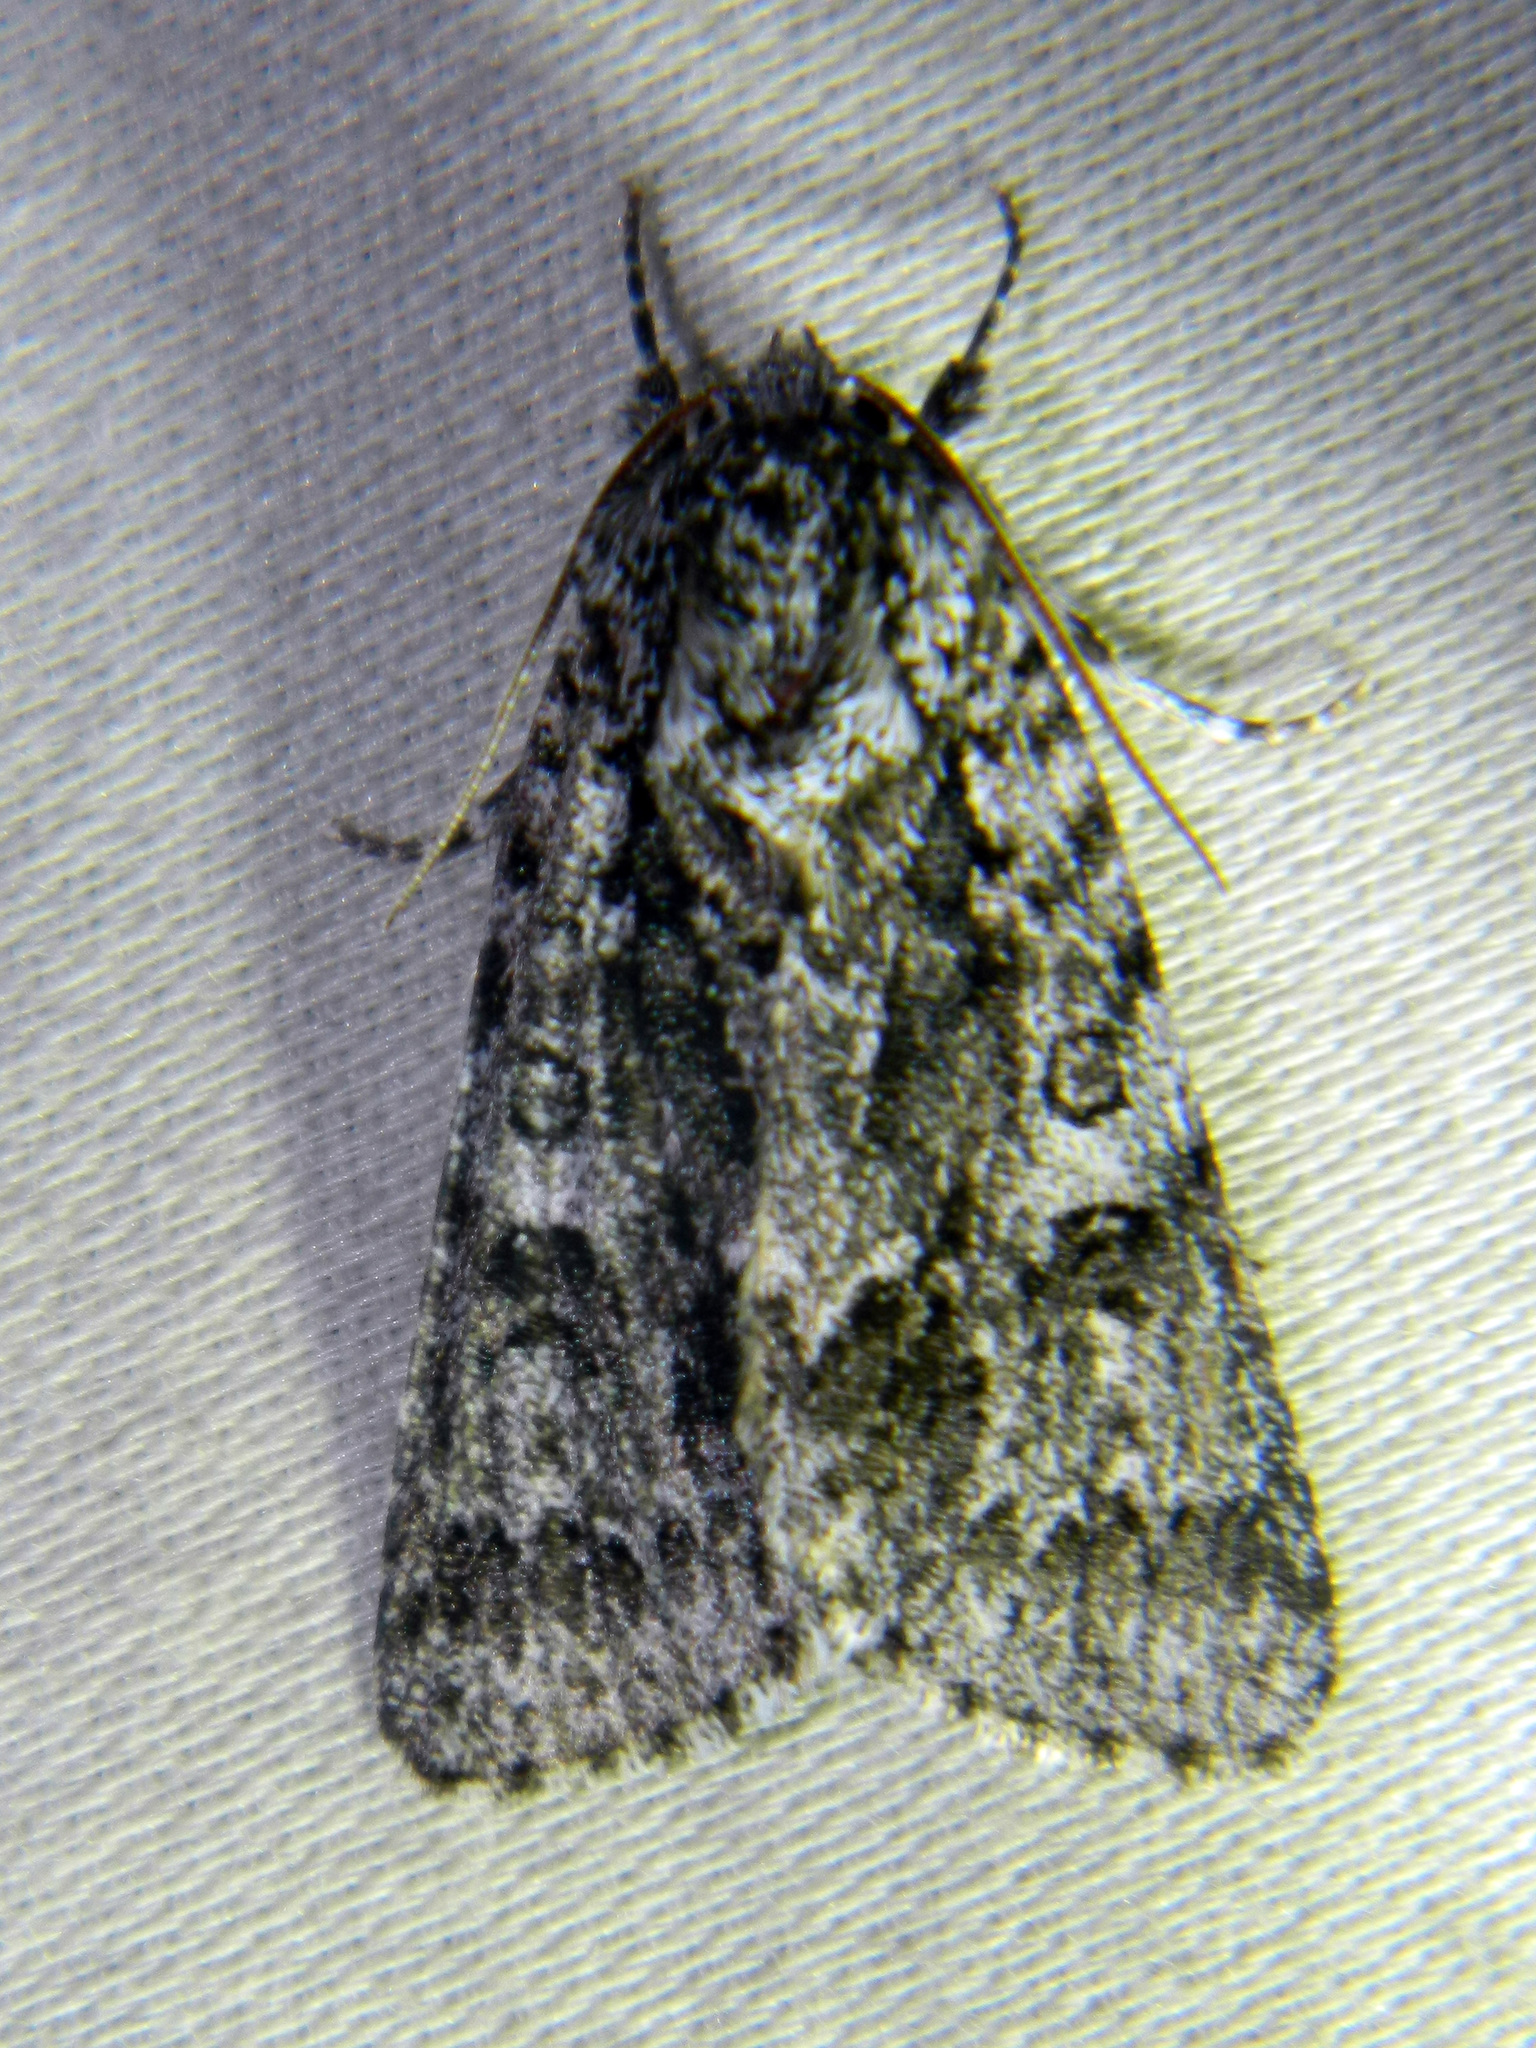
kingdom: Animalia
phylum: Arthropoda
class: Insecta
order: Lepidoptera
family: Noctuidae
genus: Acronicta
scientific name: Acronicta impressa
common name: Impressed dagger
